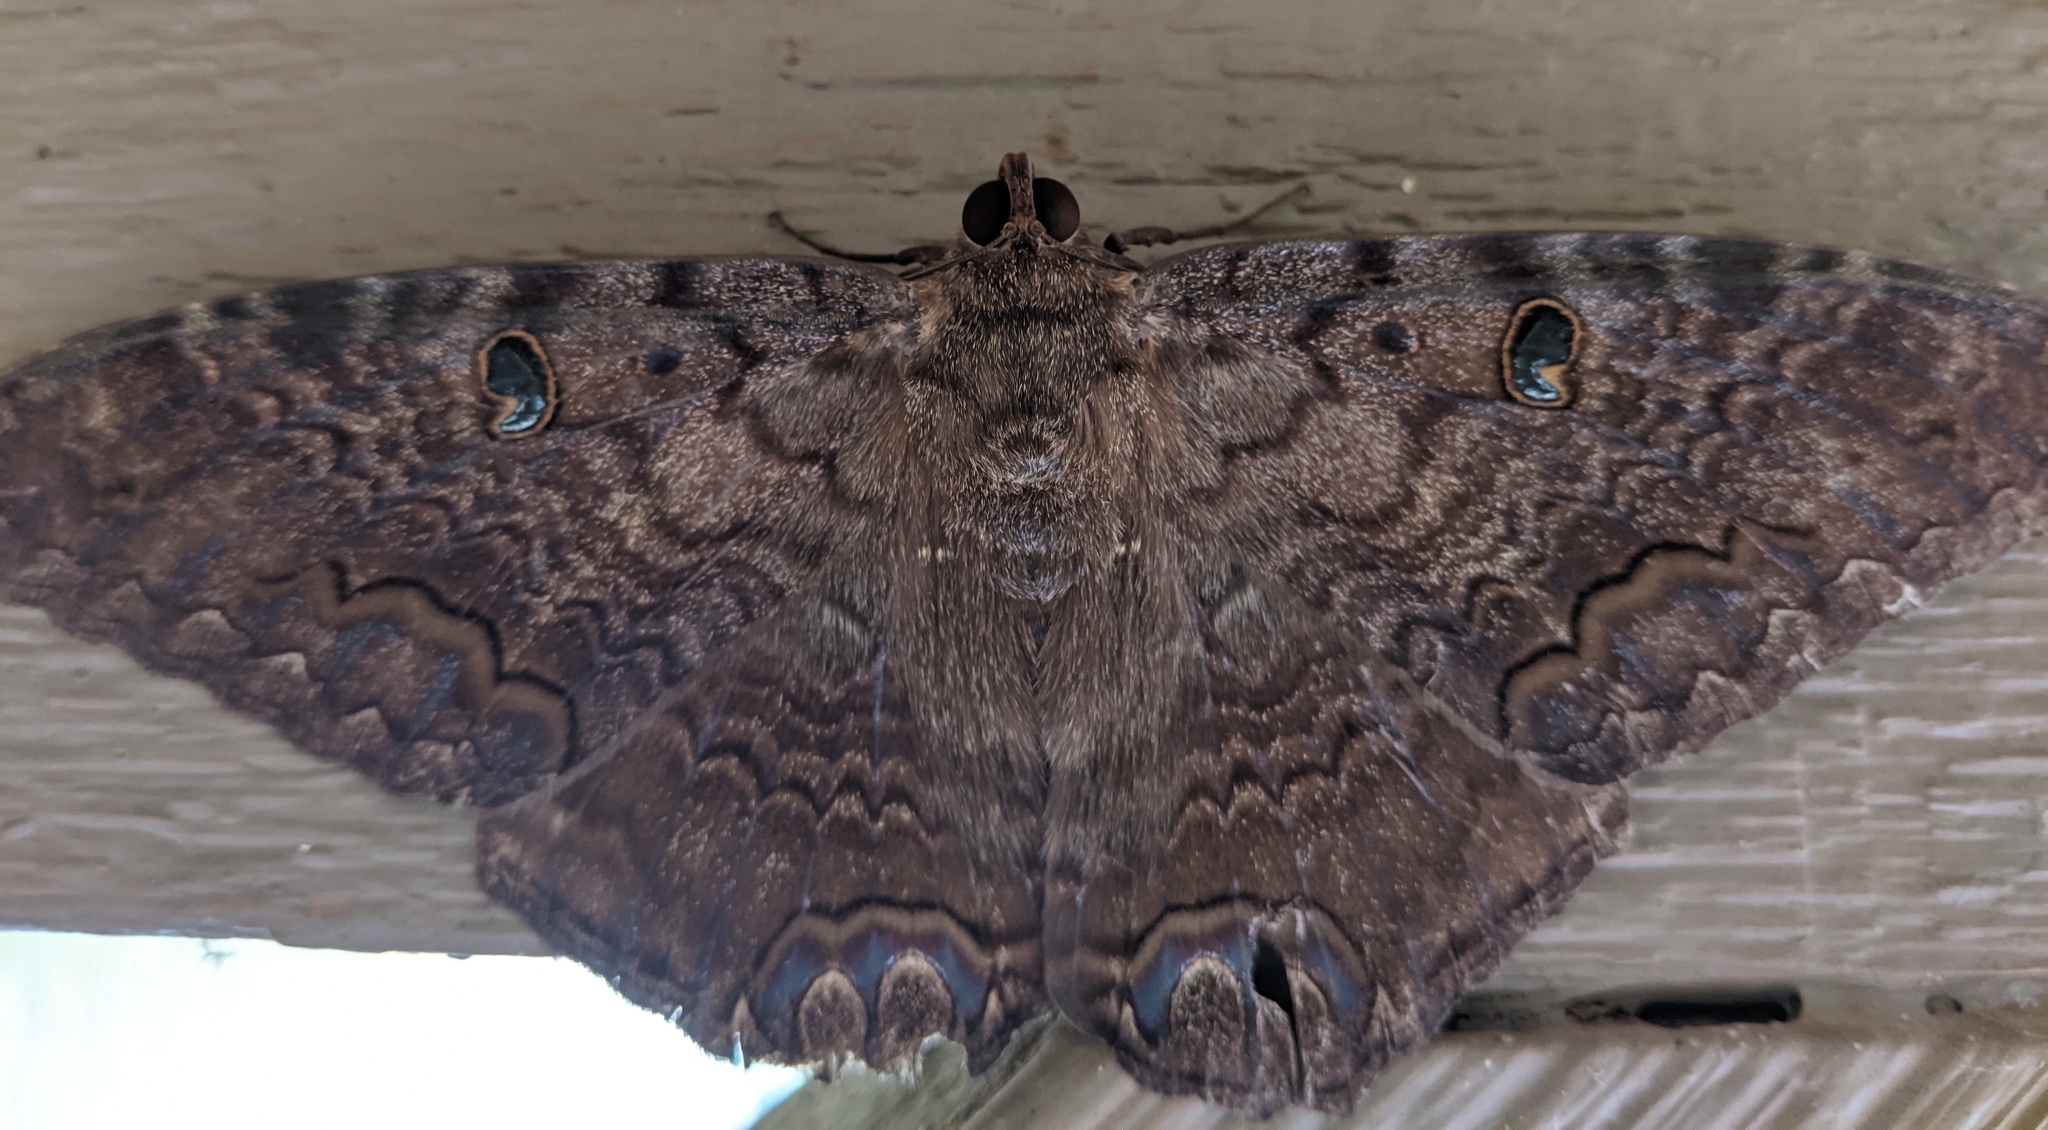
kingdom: Animalia
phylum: Arthropoda
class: Insecta
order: Lepidoptera
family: Erebidae
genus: Ascalapha
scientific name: Ascalapha odorata
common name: Black witch
